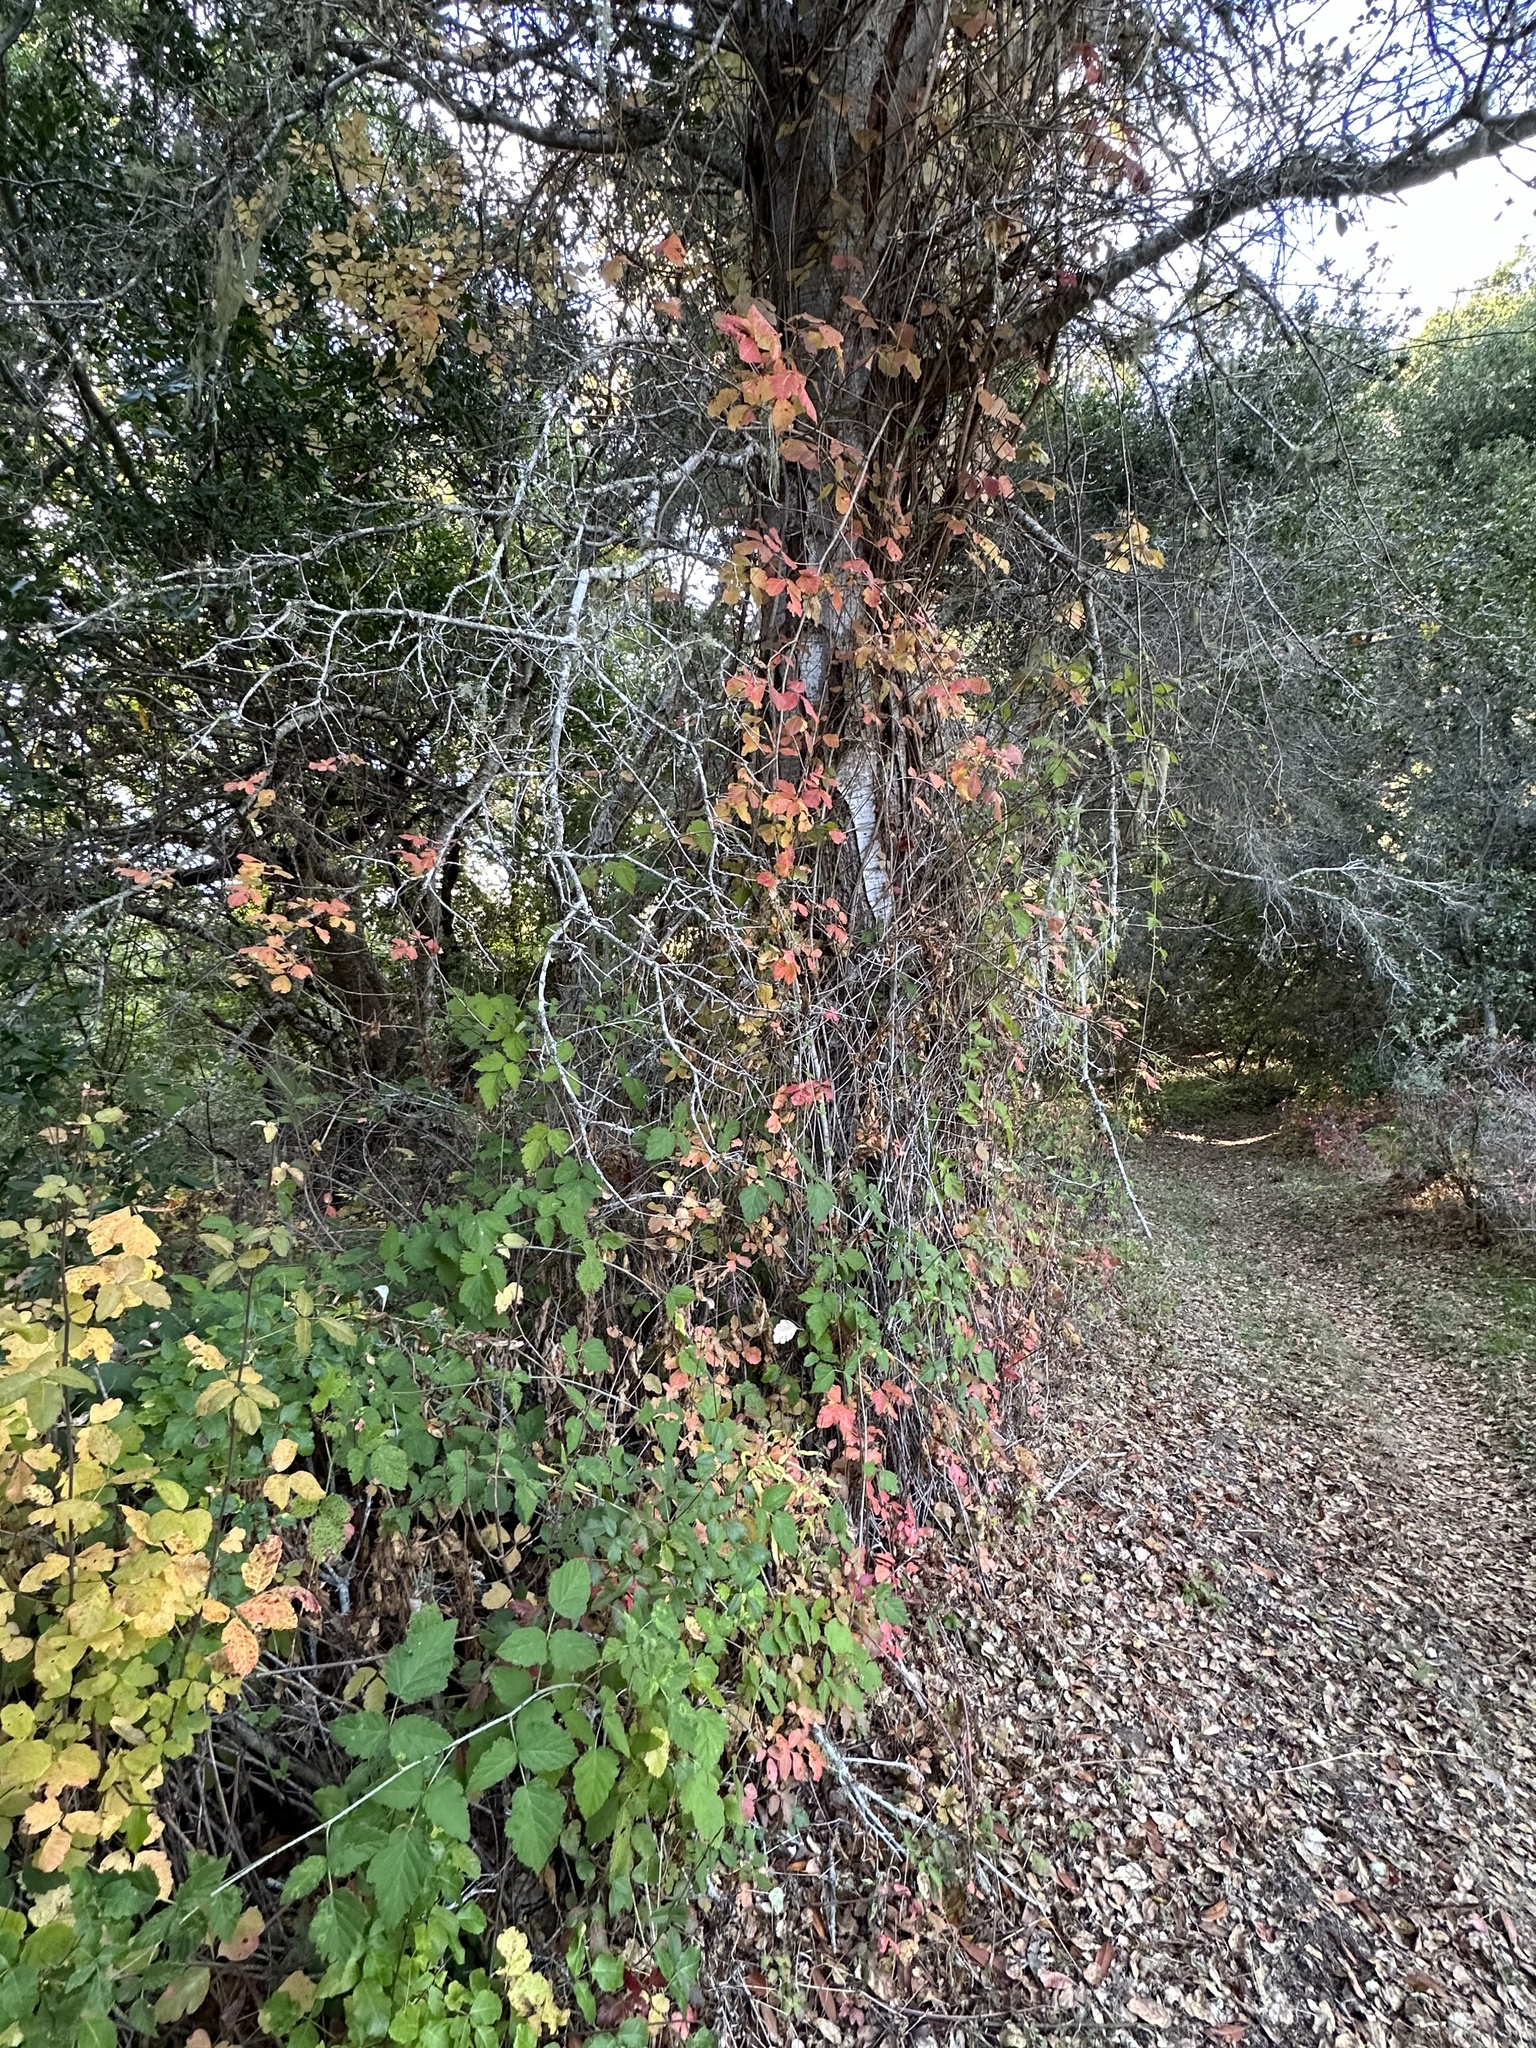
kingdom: Plantae
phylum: Tracheophyta
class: Magnoliopsida
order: Sapindales
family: Anacardiaceae
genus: Toxicodendron
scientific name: Toxicodendron diversilobum
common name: Pacific poison-oak
